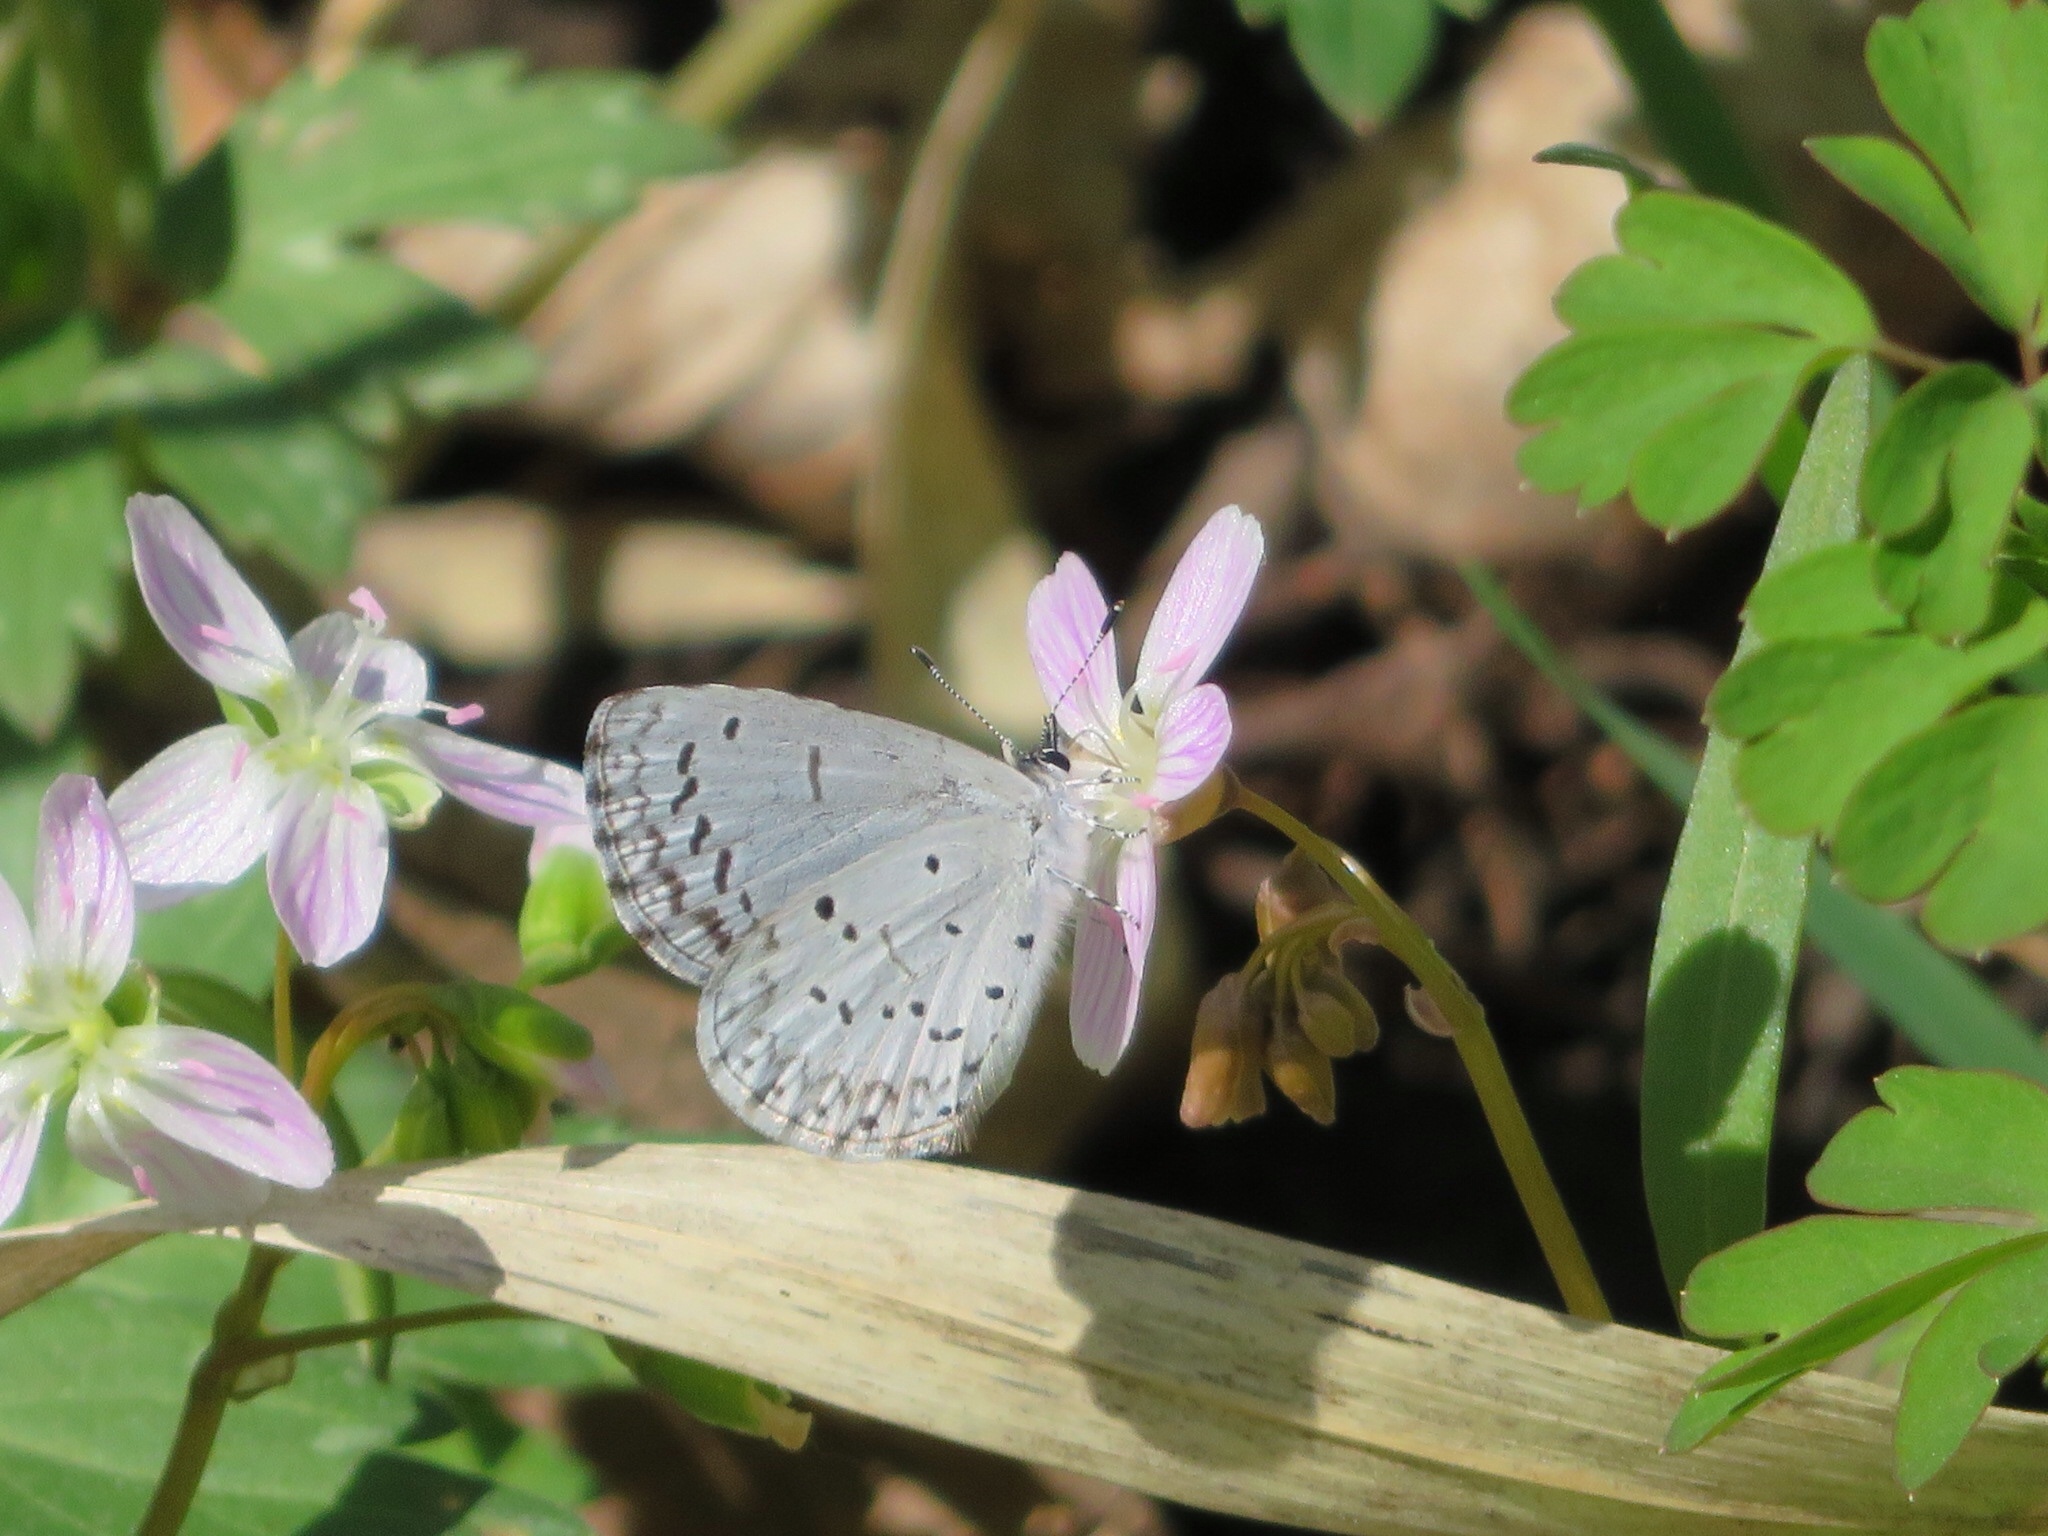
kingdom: Animalia
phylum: Arthropoda
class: Insecta
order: Lepidoptera
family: Lycaenidae
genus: Celastrina
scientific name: Celastrina ladon
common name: Spring azure
